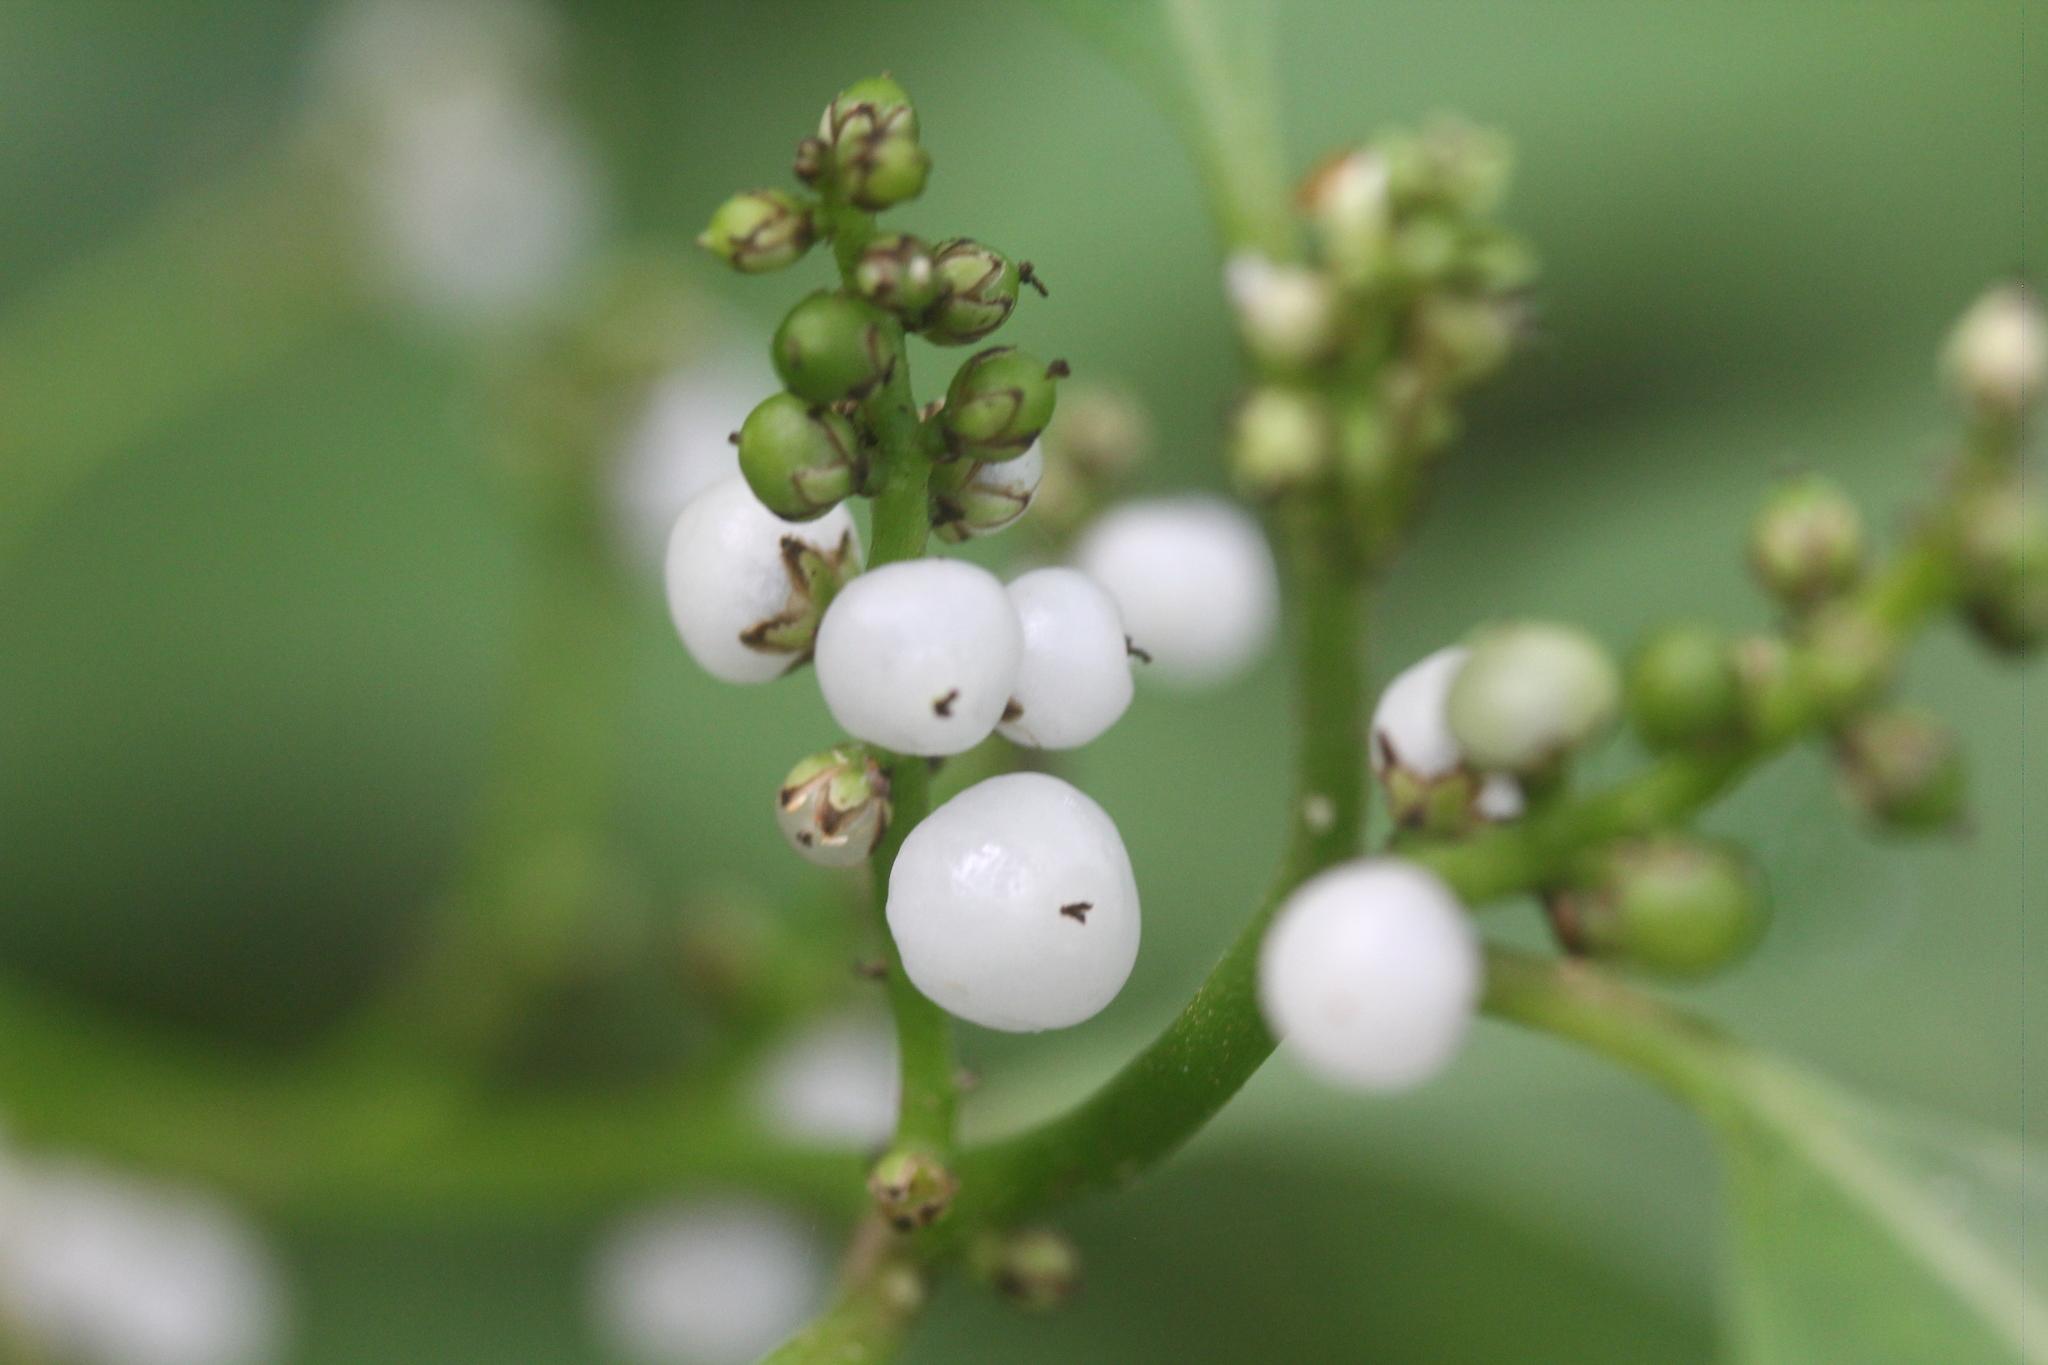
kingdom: Plantae
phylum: Tracheophyta
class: Magnoliopsida
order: Caryophyllales
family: Amaranthaceae
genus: Deeringia
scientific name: Deeringia polysperma
